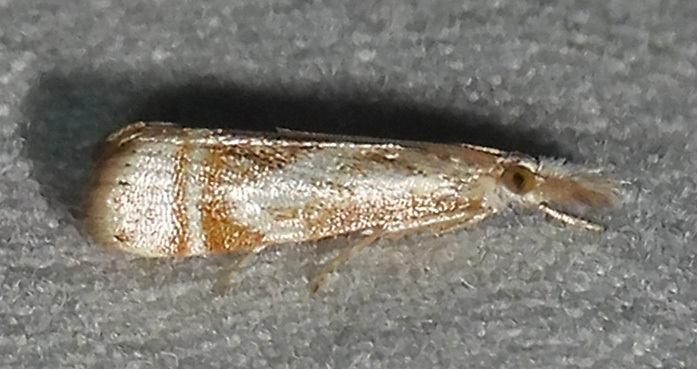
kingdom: Animalia
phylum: Arthropoda
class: Insecta
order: Lepidoptera
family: Crambidae
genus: Microcrambus
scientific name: Microcrambus elegans
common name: Elegant grass-veneer
